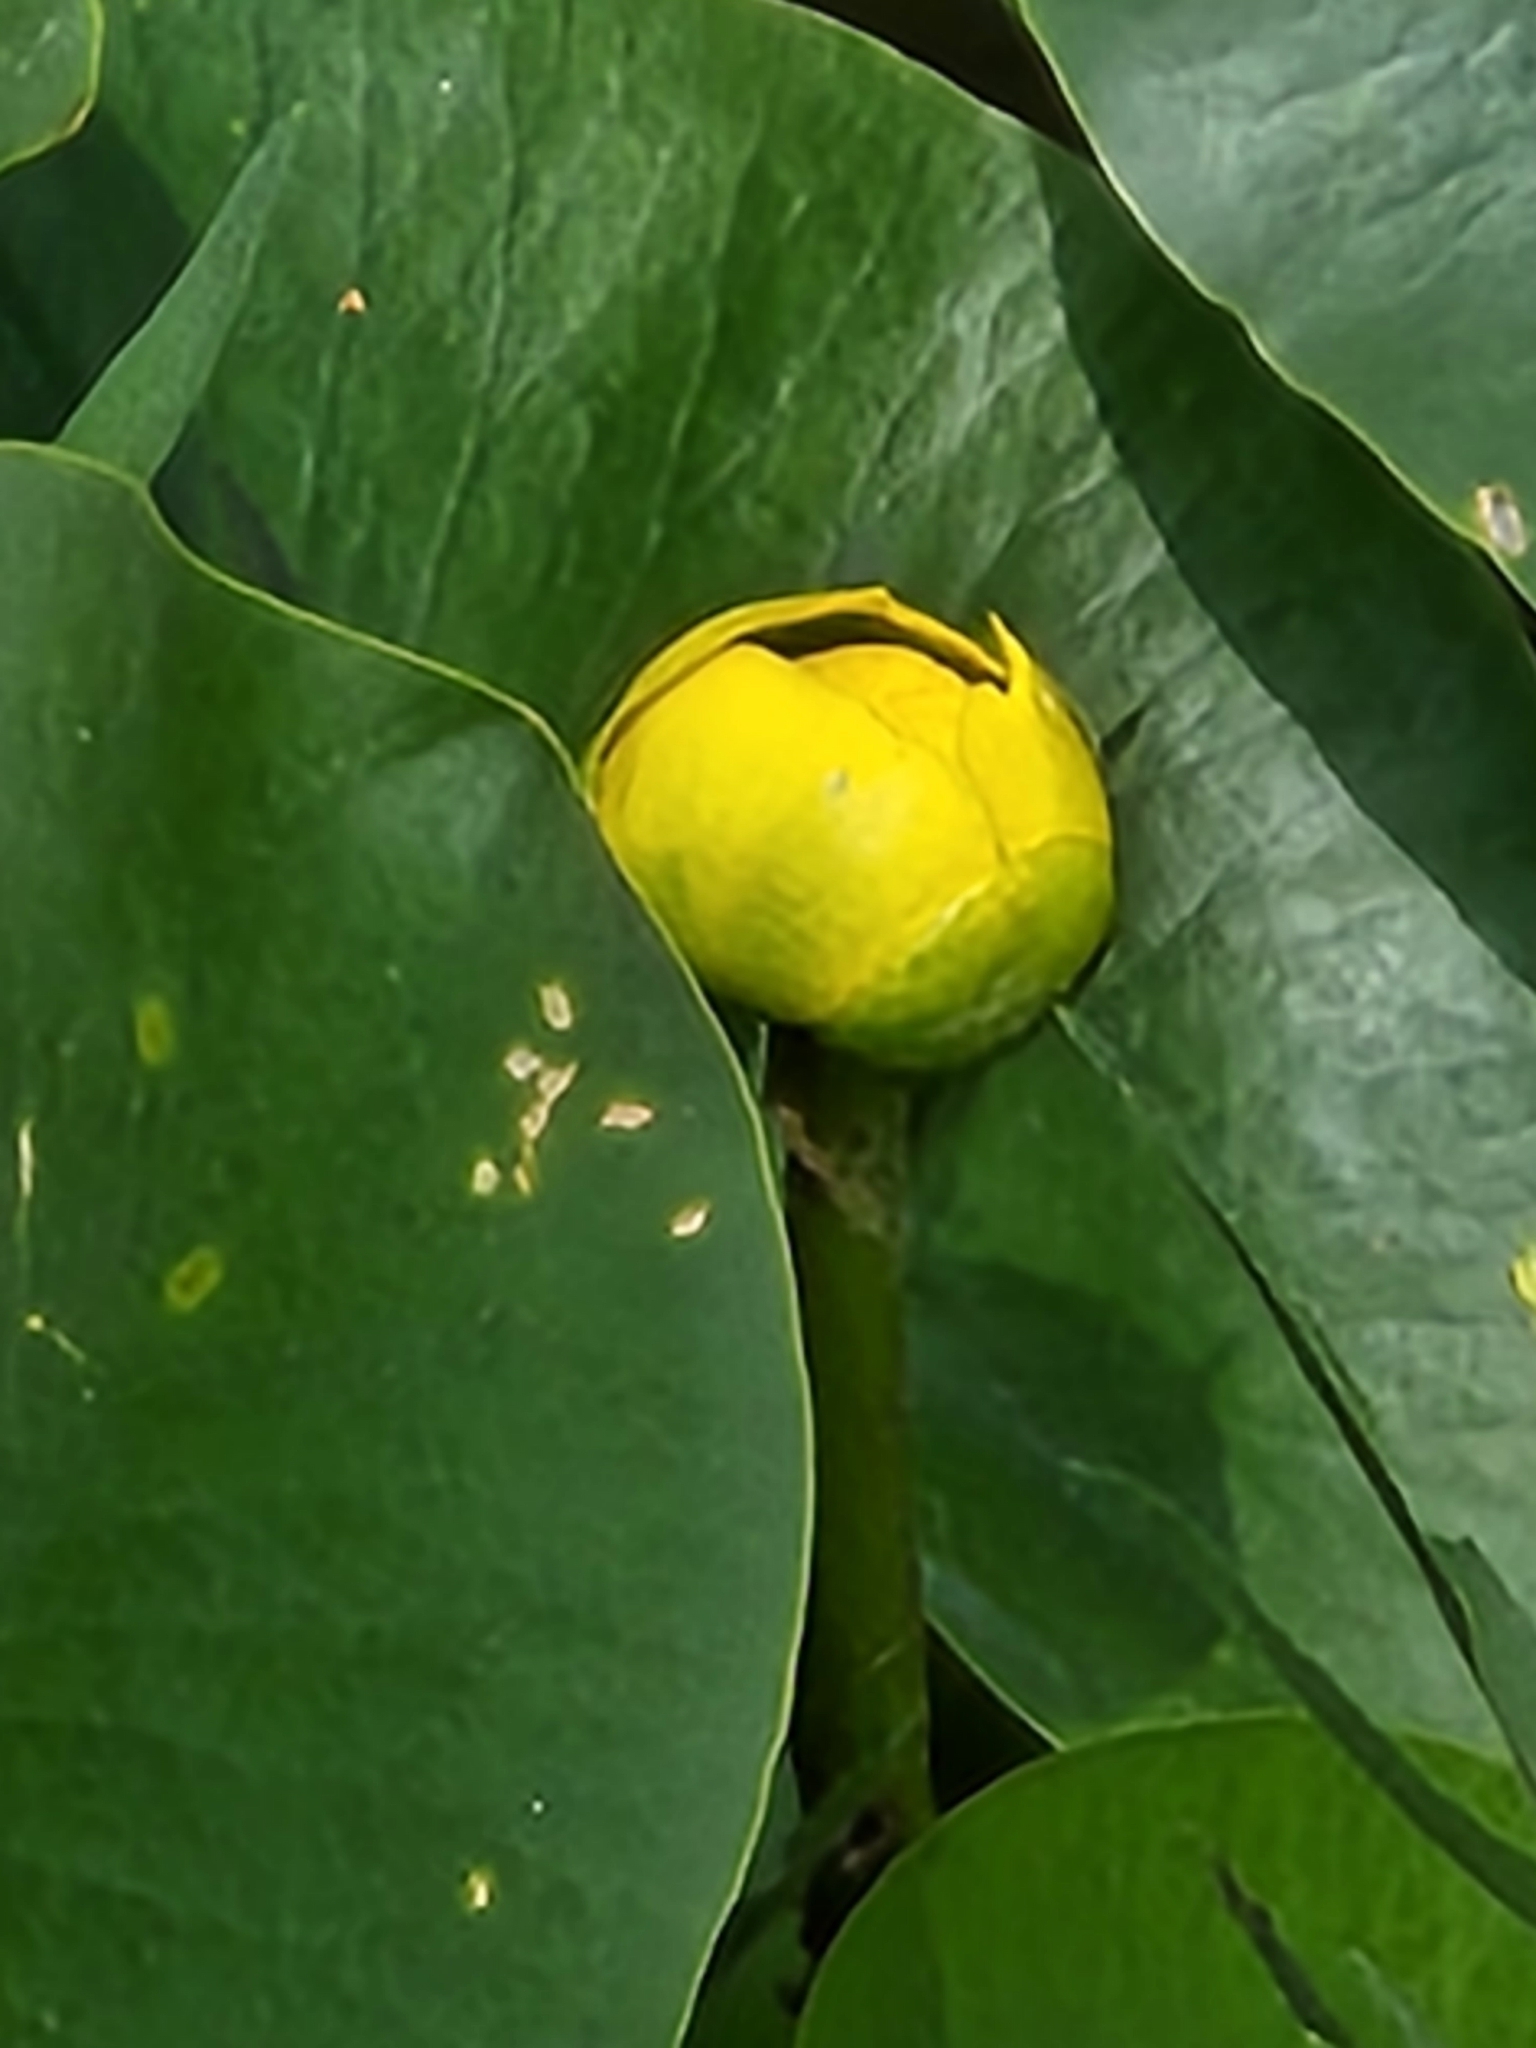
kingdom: Plantae
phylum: Tracheophyta
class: Magnoliopsida
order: Nymphaeales
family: Nymphaeaceae
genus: Nuphar
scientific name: Nuphar advena
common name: Spatter-dock
